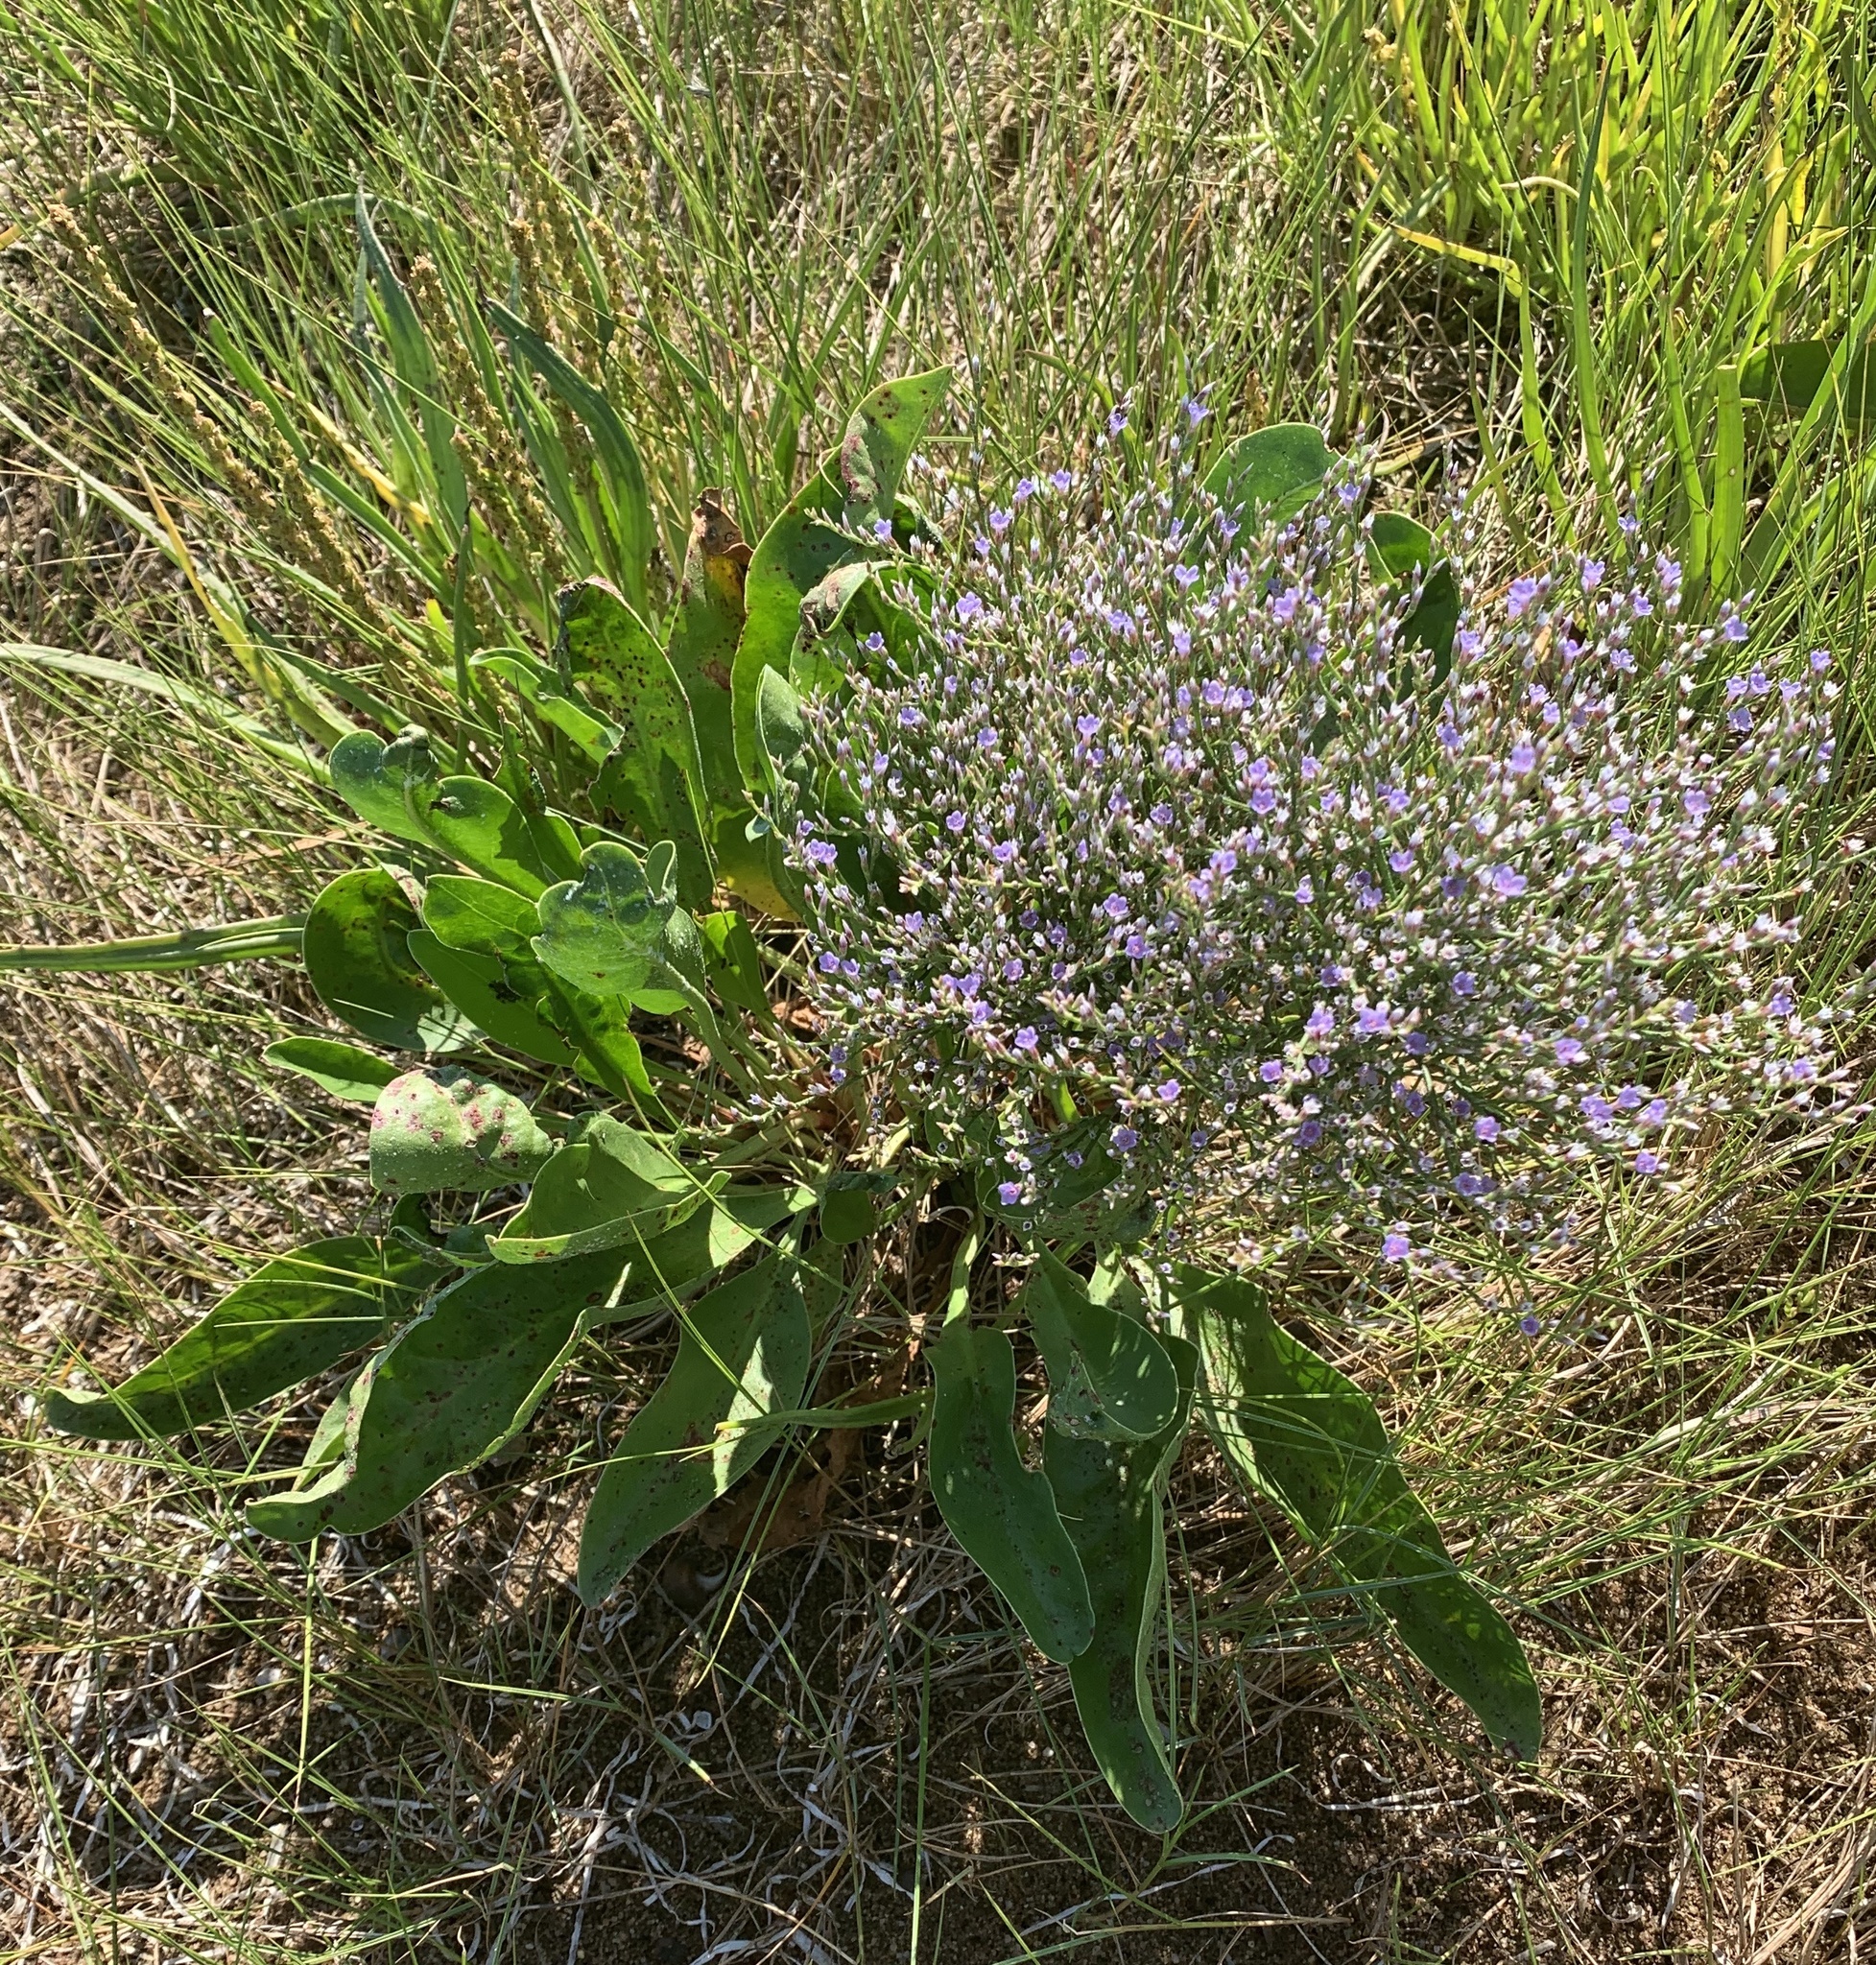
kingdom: Plantae
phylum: Tracheophyta
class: Magnoliopsida
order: Caryophyllales
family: Plumbaginaceae
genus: Limonium
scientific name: Limonium carolinianum
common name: Carolina sea lavender
